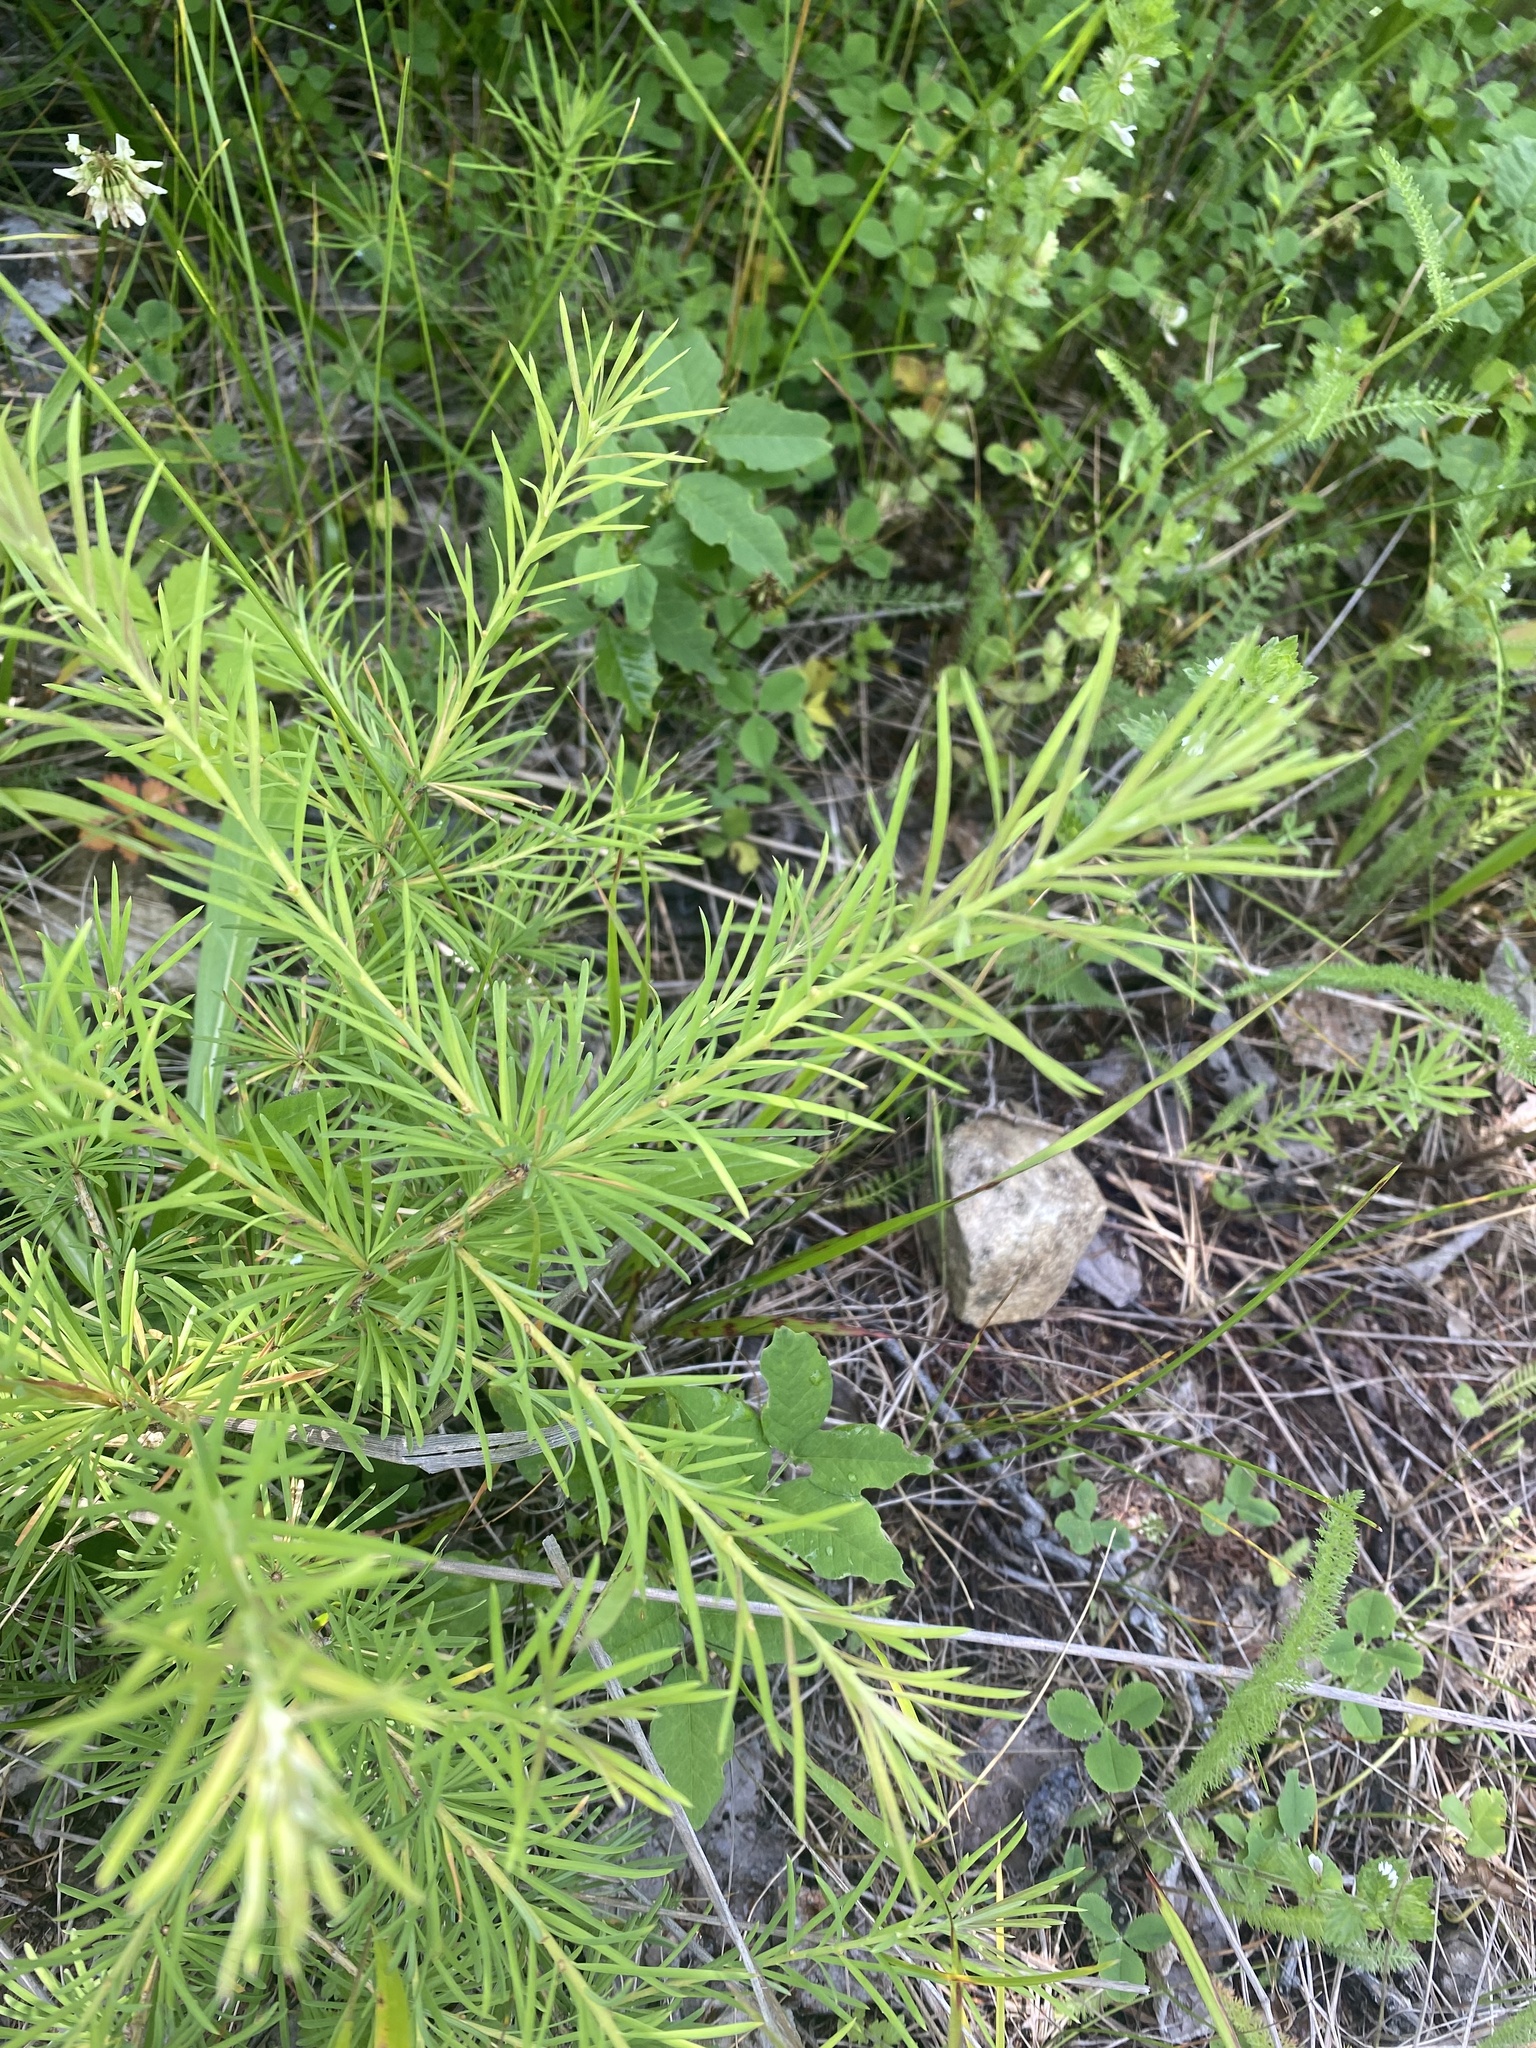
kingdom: Plantae
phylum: Tracheophyta
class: Pinopsida
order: Pinales
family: Pinaceae
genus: Larix
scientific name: Larix sibirica
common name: Siberian larch
